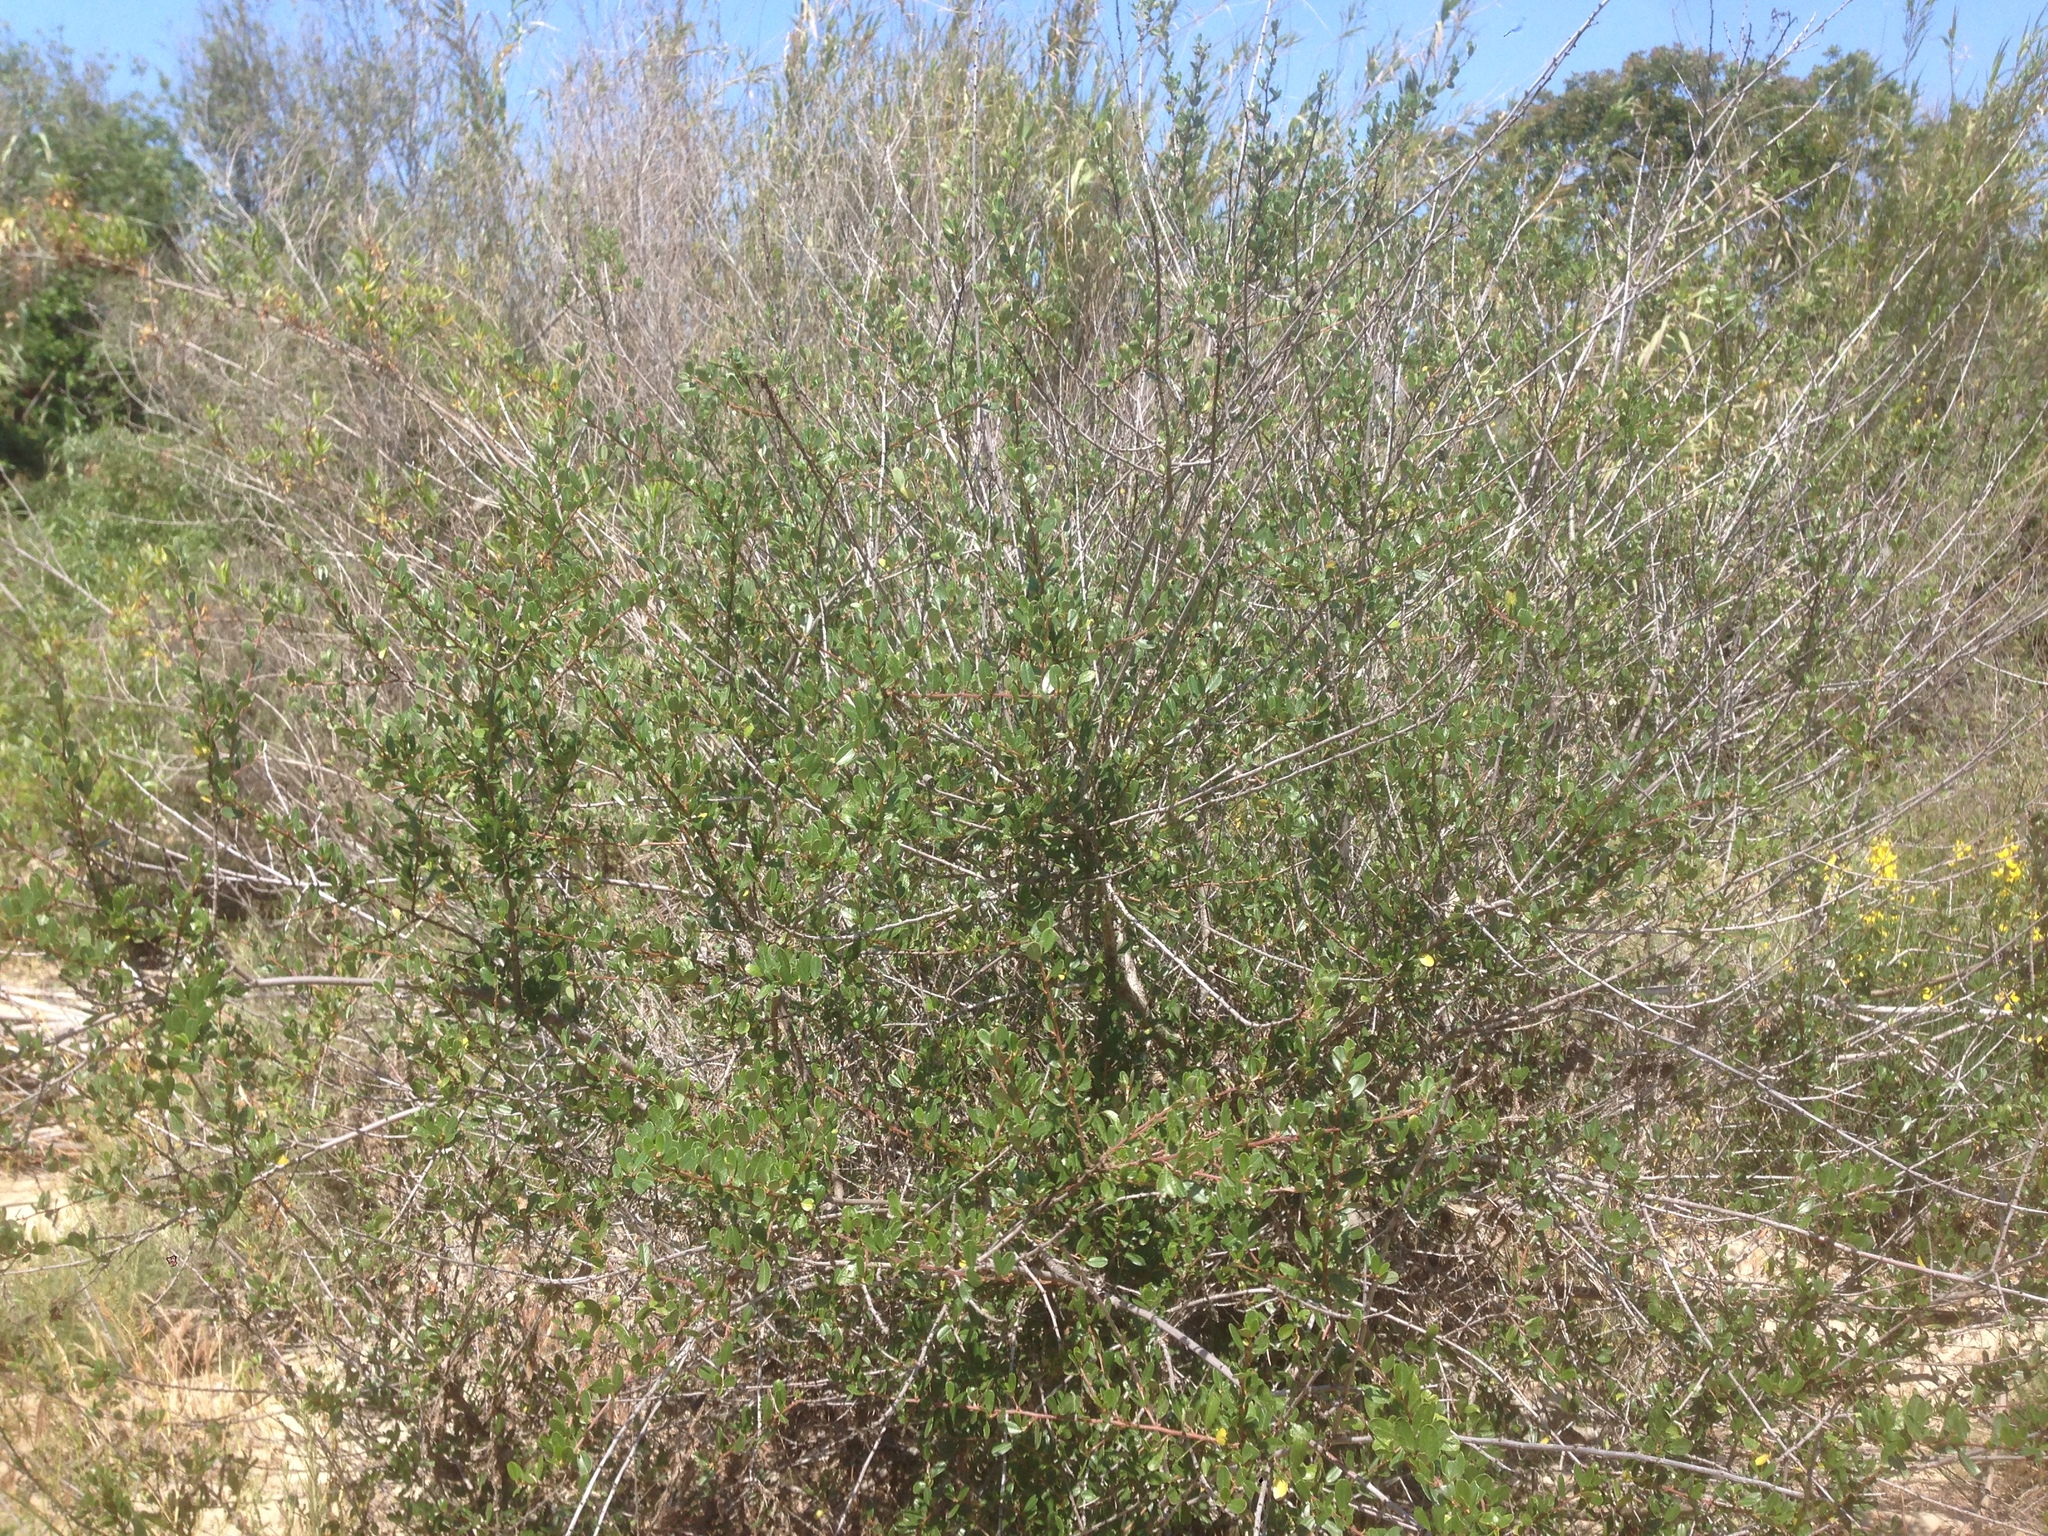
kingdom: Plantae
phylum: Tracheophyta
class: Magnoliopsida
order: Rosales
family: Rhamnaceae
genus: Ceanothus
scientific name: Ceanothus megacarpus
